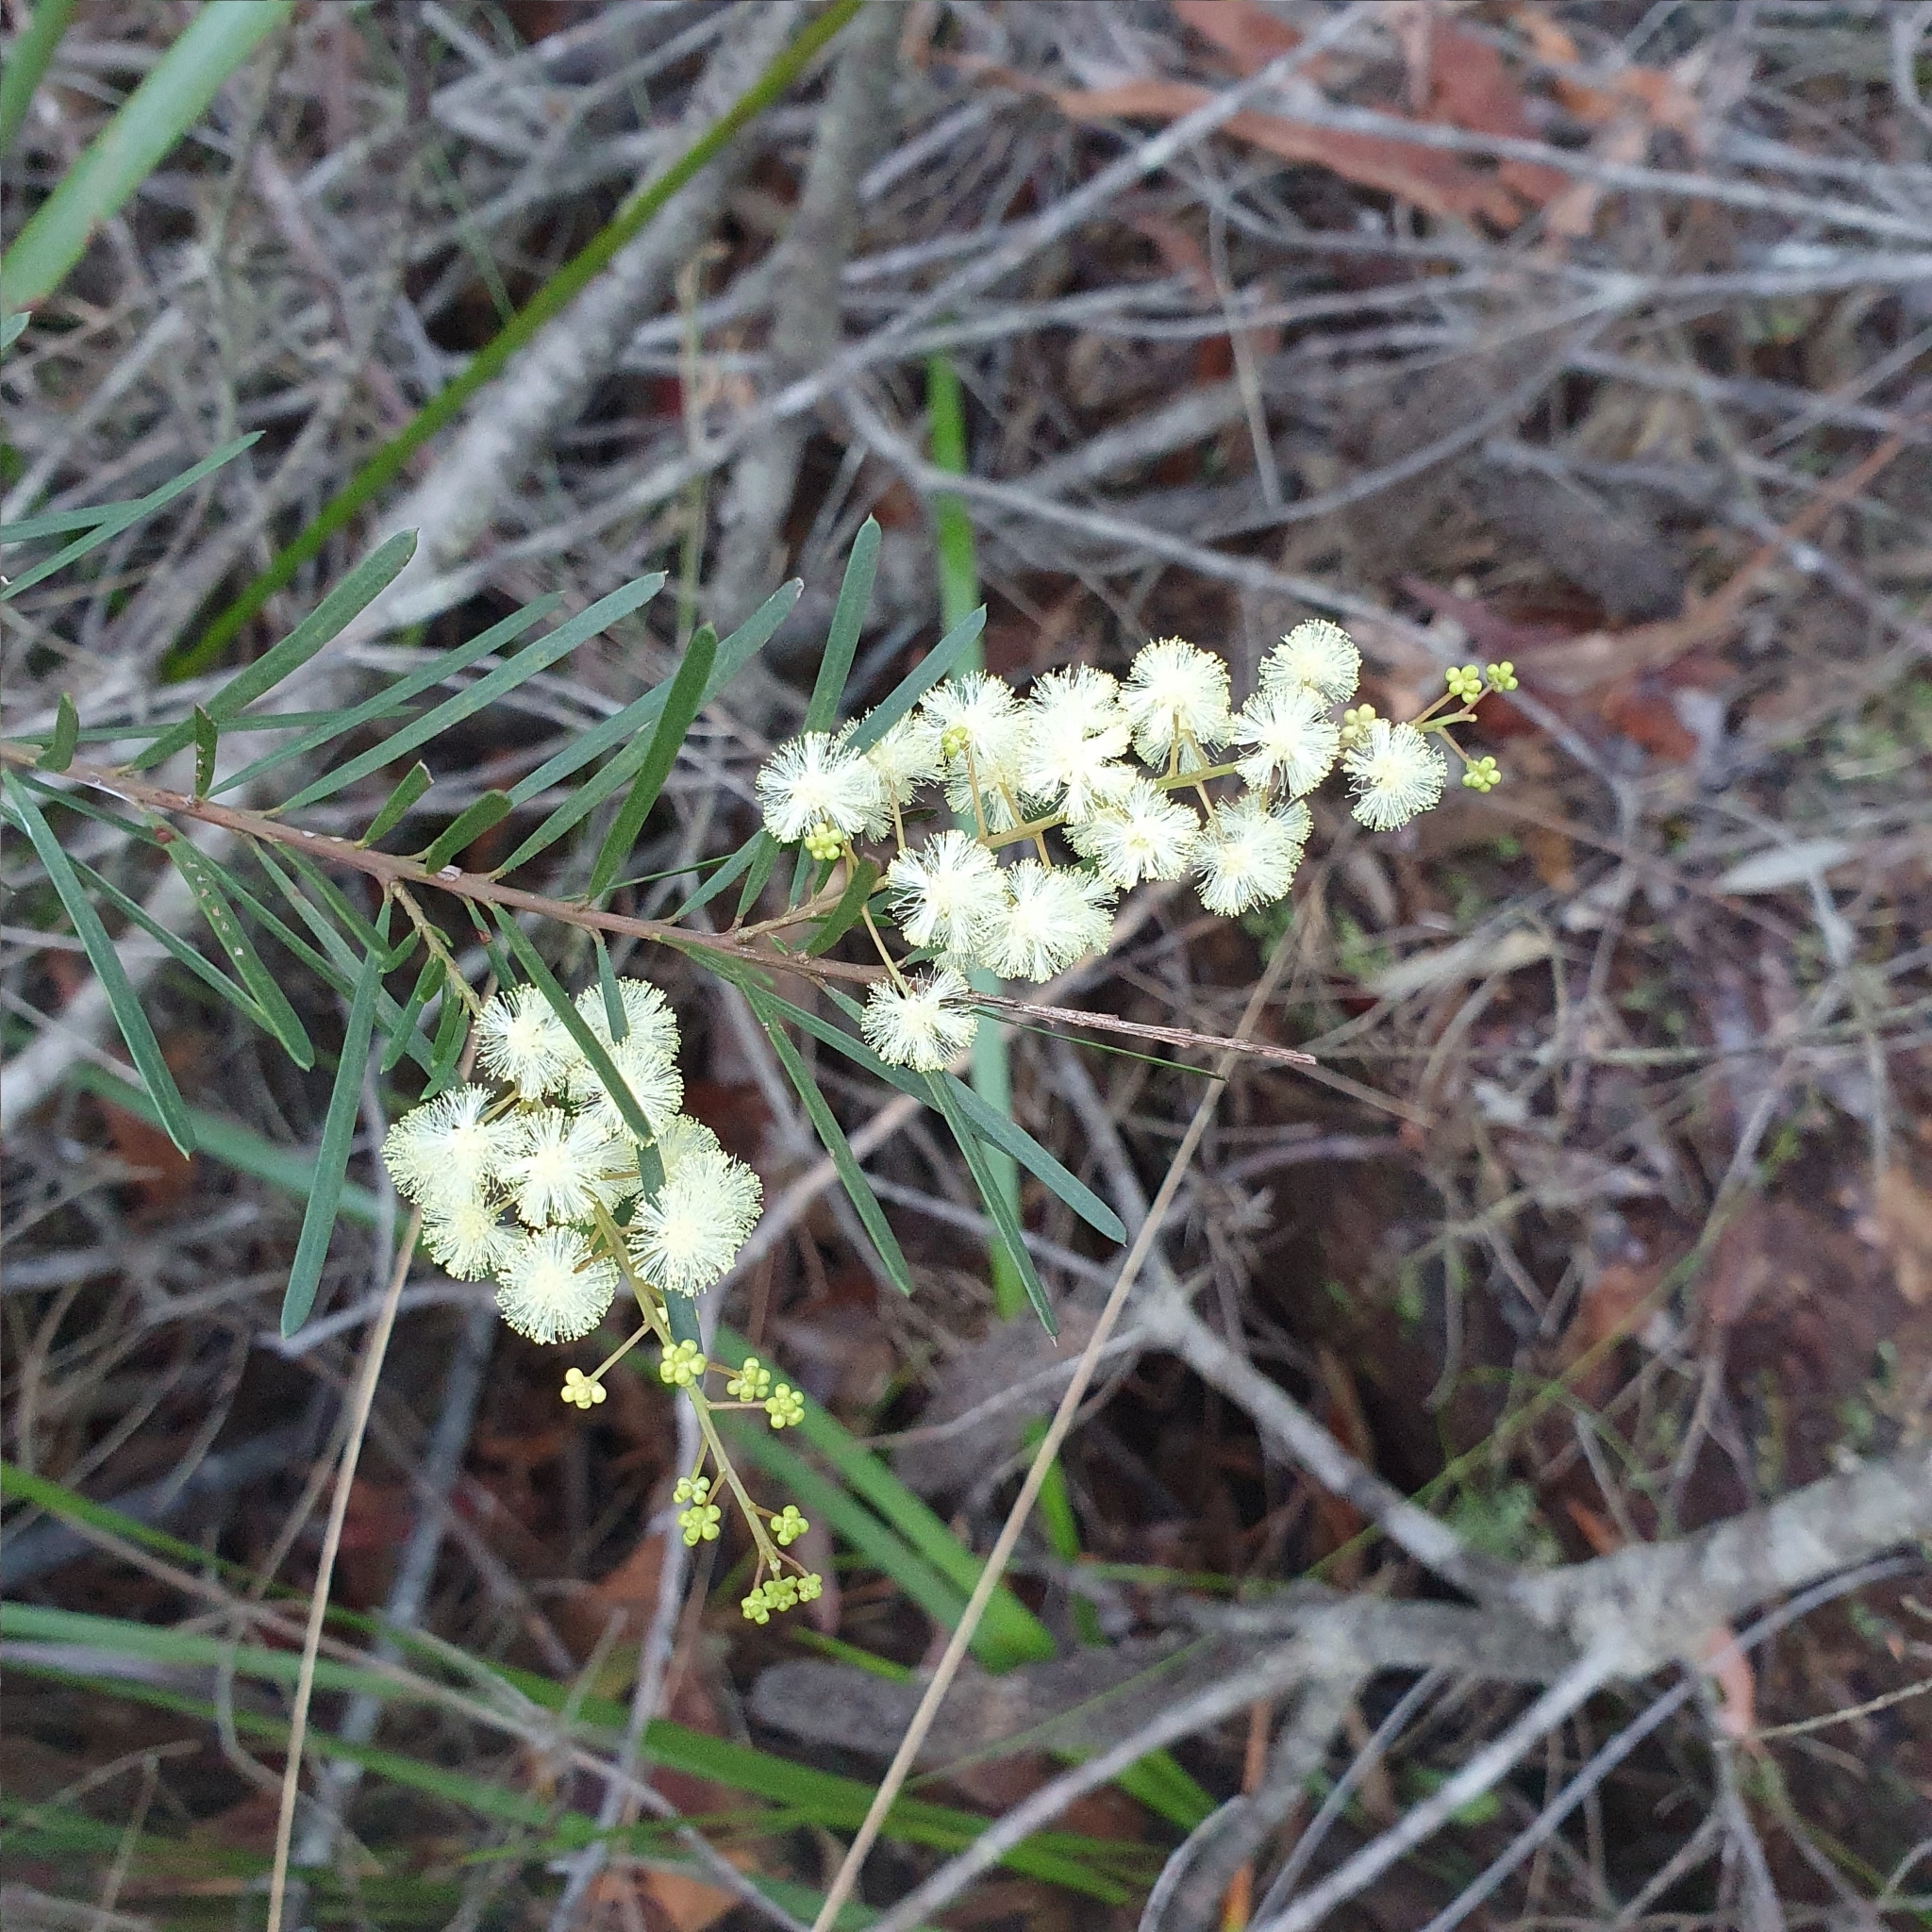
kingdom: Plantae
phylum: Tracheophyta
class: Magnoliopsida
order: Fabales
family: Fabaceae
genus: Acacia
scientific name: Acacia linifolia
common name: White wattle
